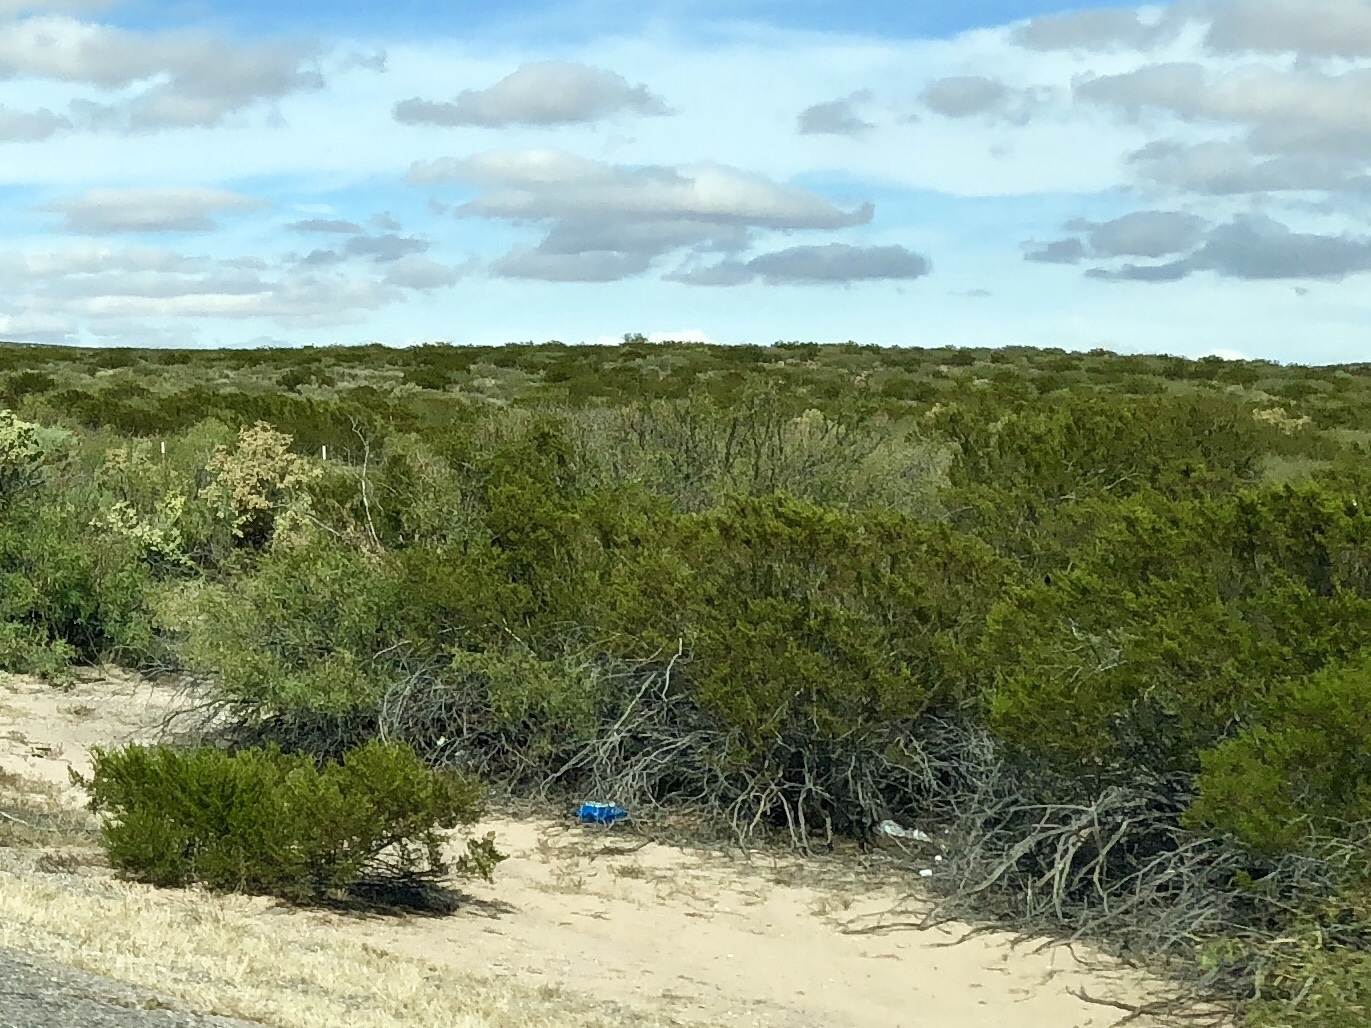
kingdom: Plantae
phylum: Tracheophyta
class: Magnoliopsida
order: Zygophyllales
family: Zygophyllaceae
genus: Larrea
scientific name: Larrea tridentata
